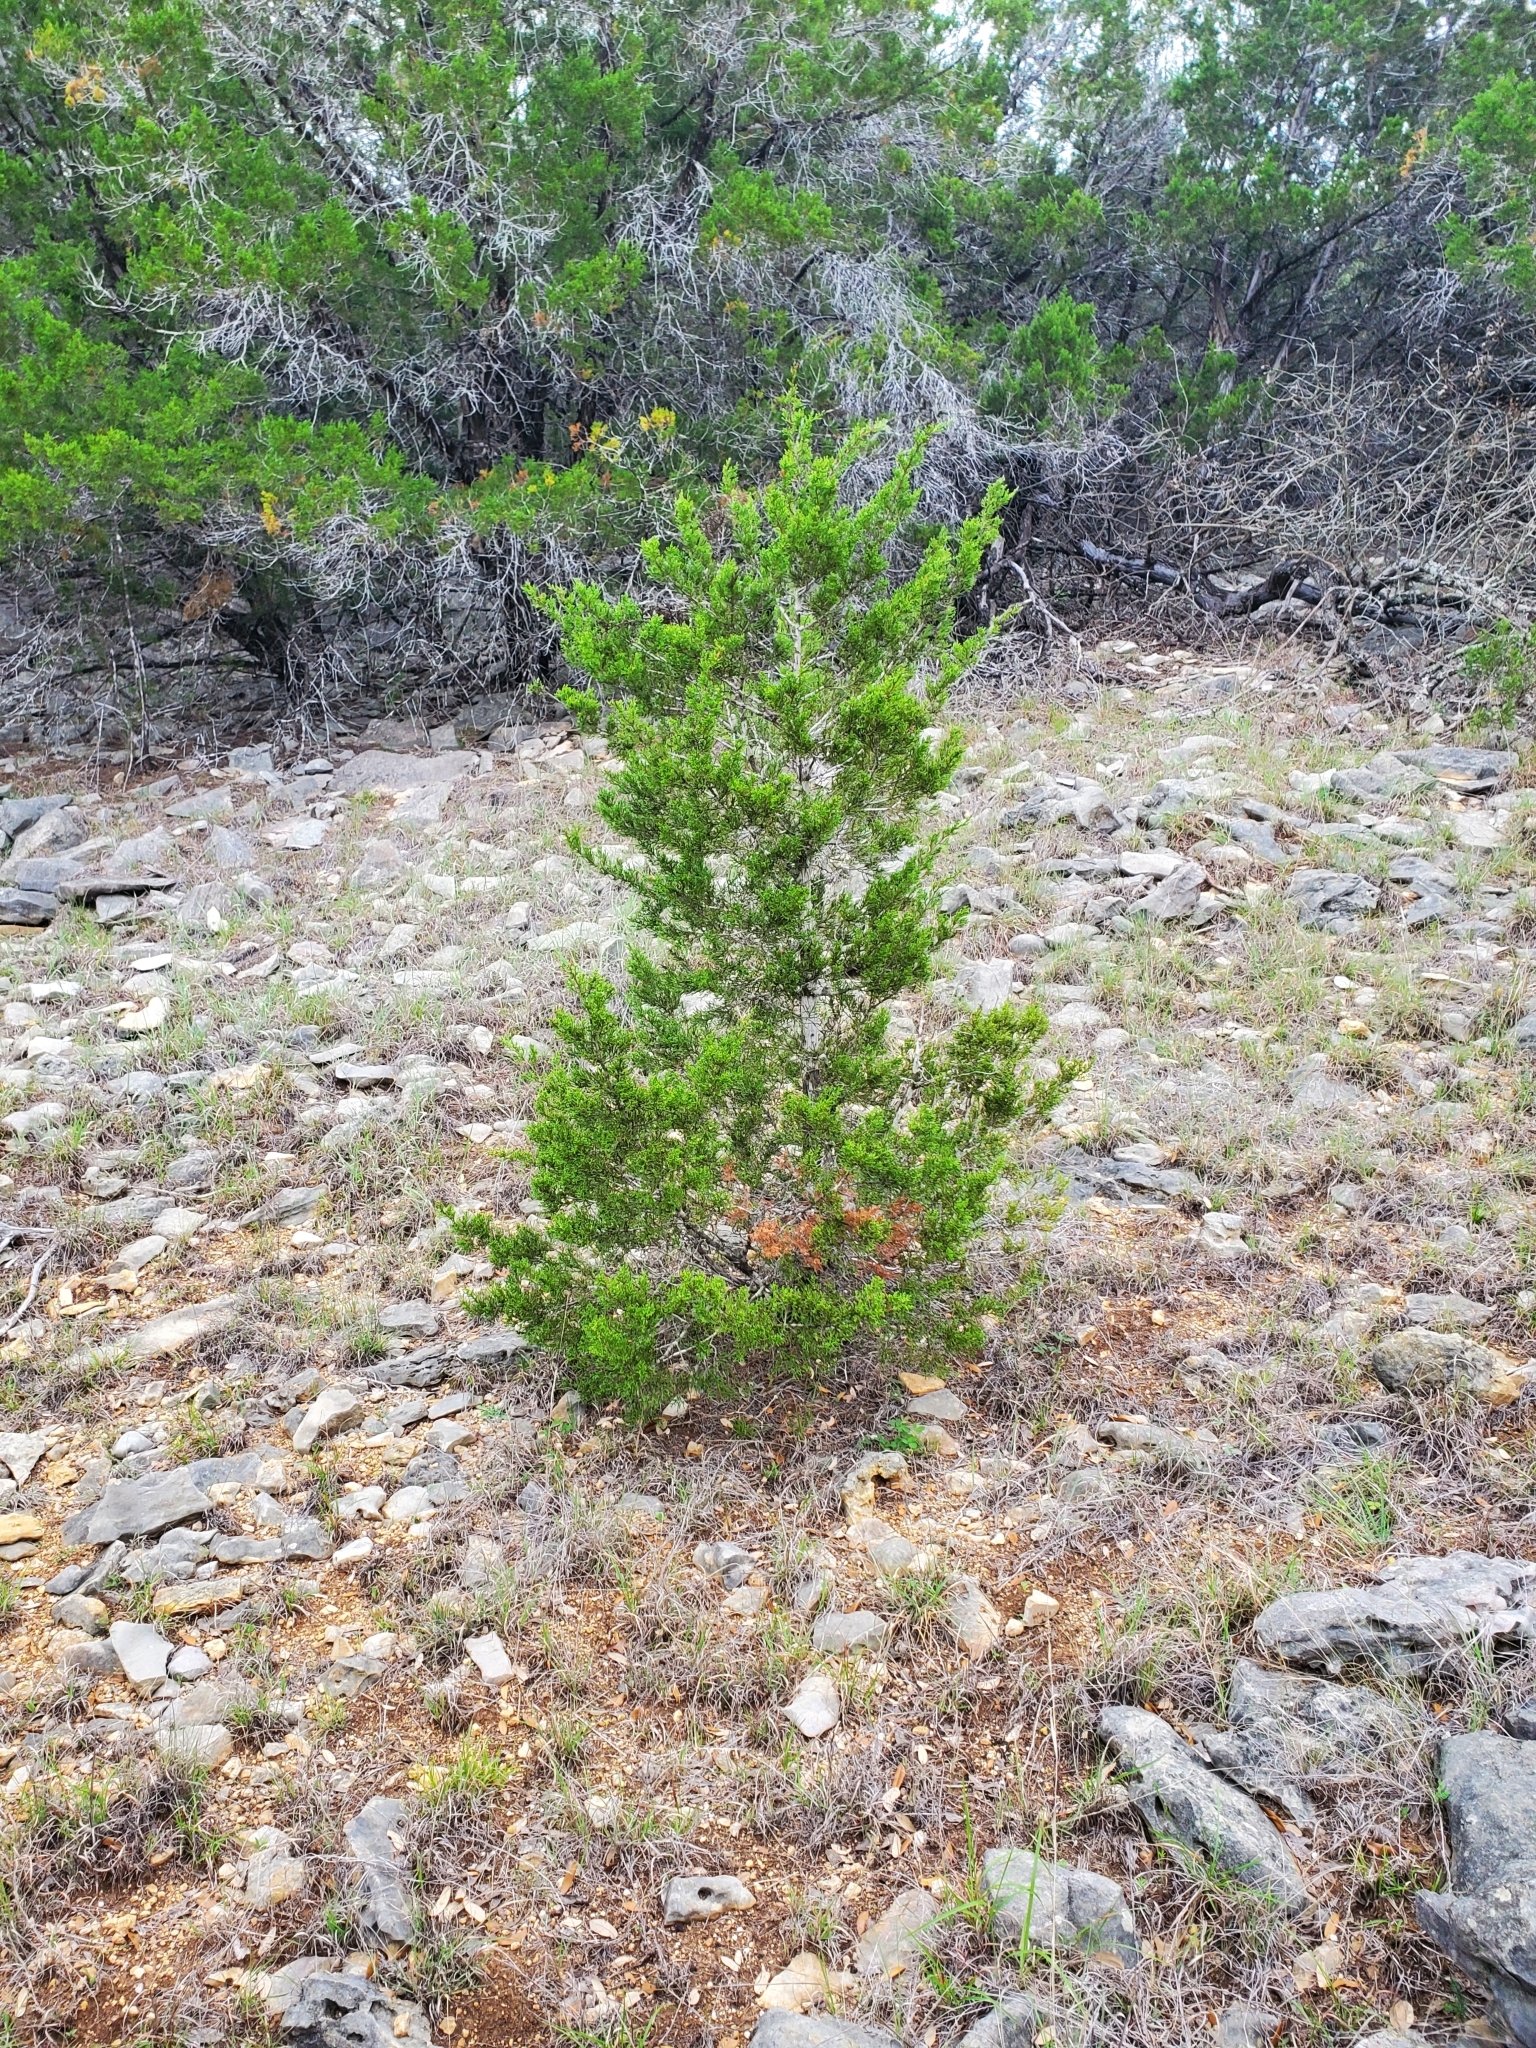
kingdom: Plantae
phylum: Tracheophyta
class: Pinopsida
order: Pinales
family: Cupressaceae
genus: Juniperus
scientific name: Juniperus ashei
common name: Mexican juniper
